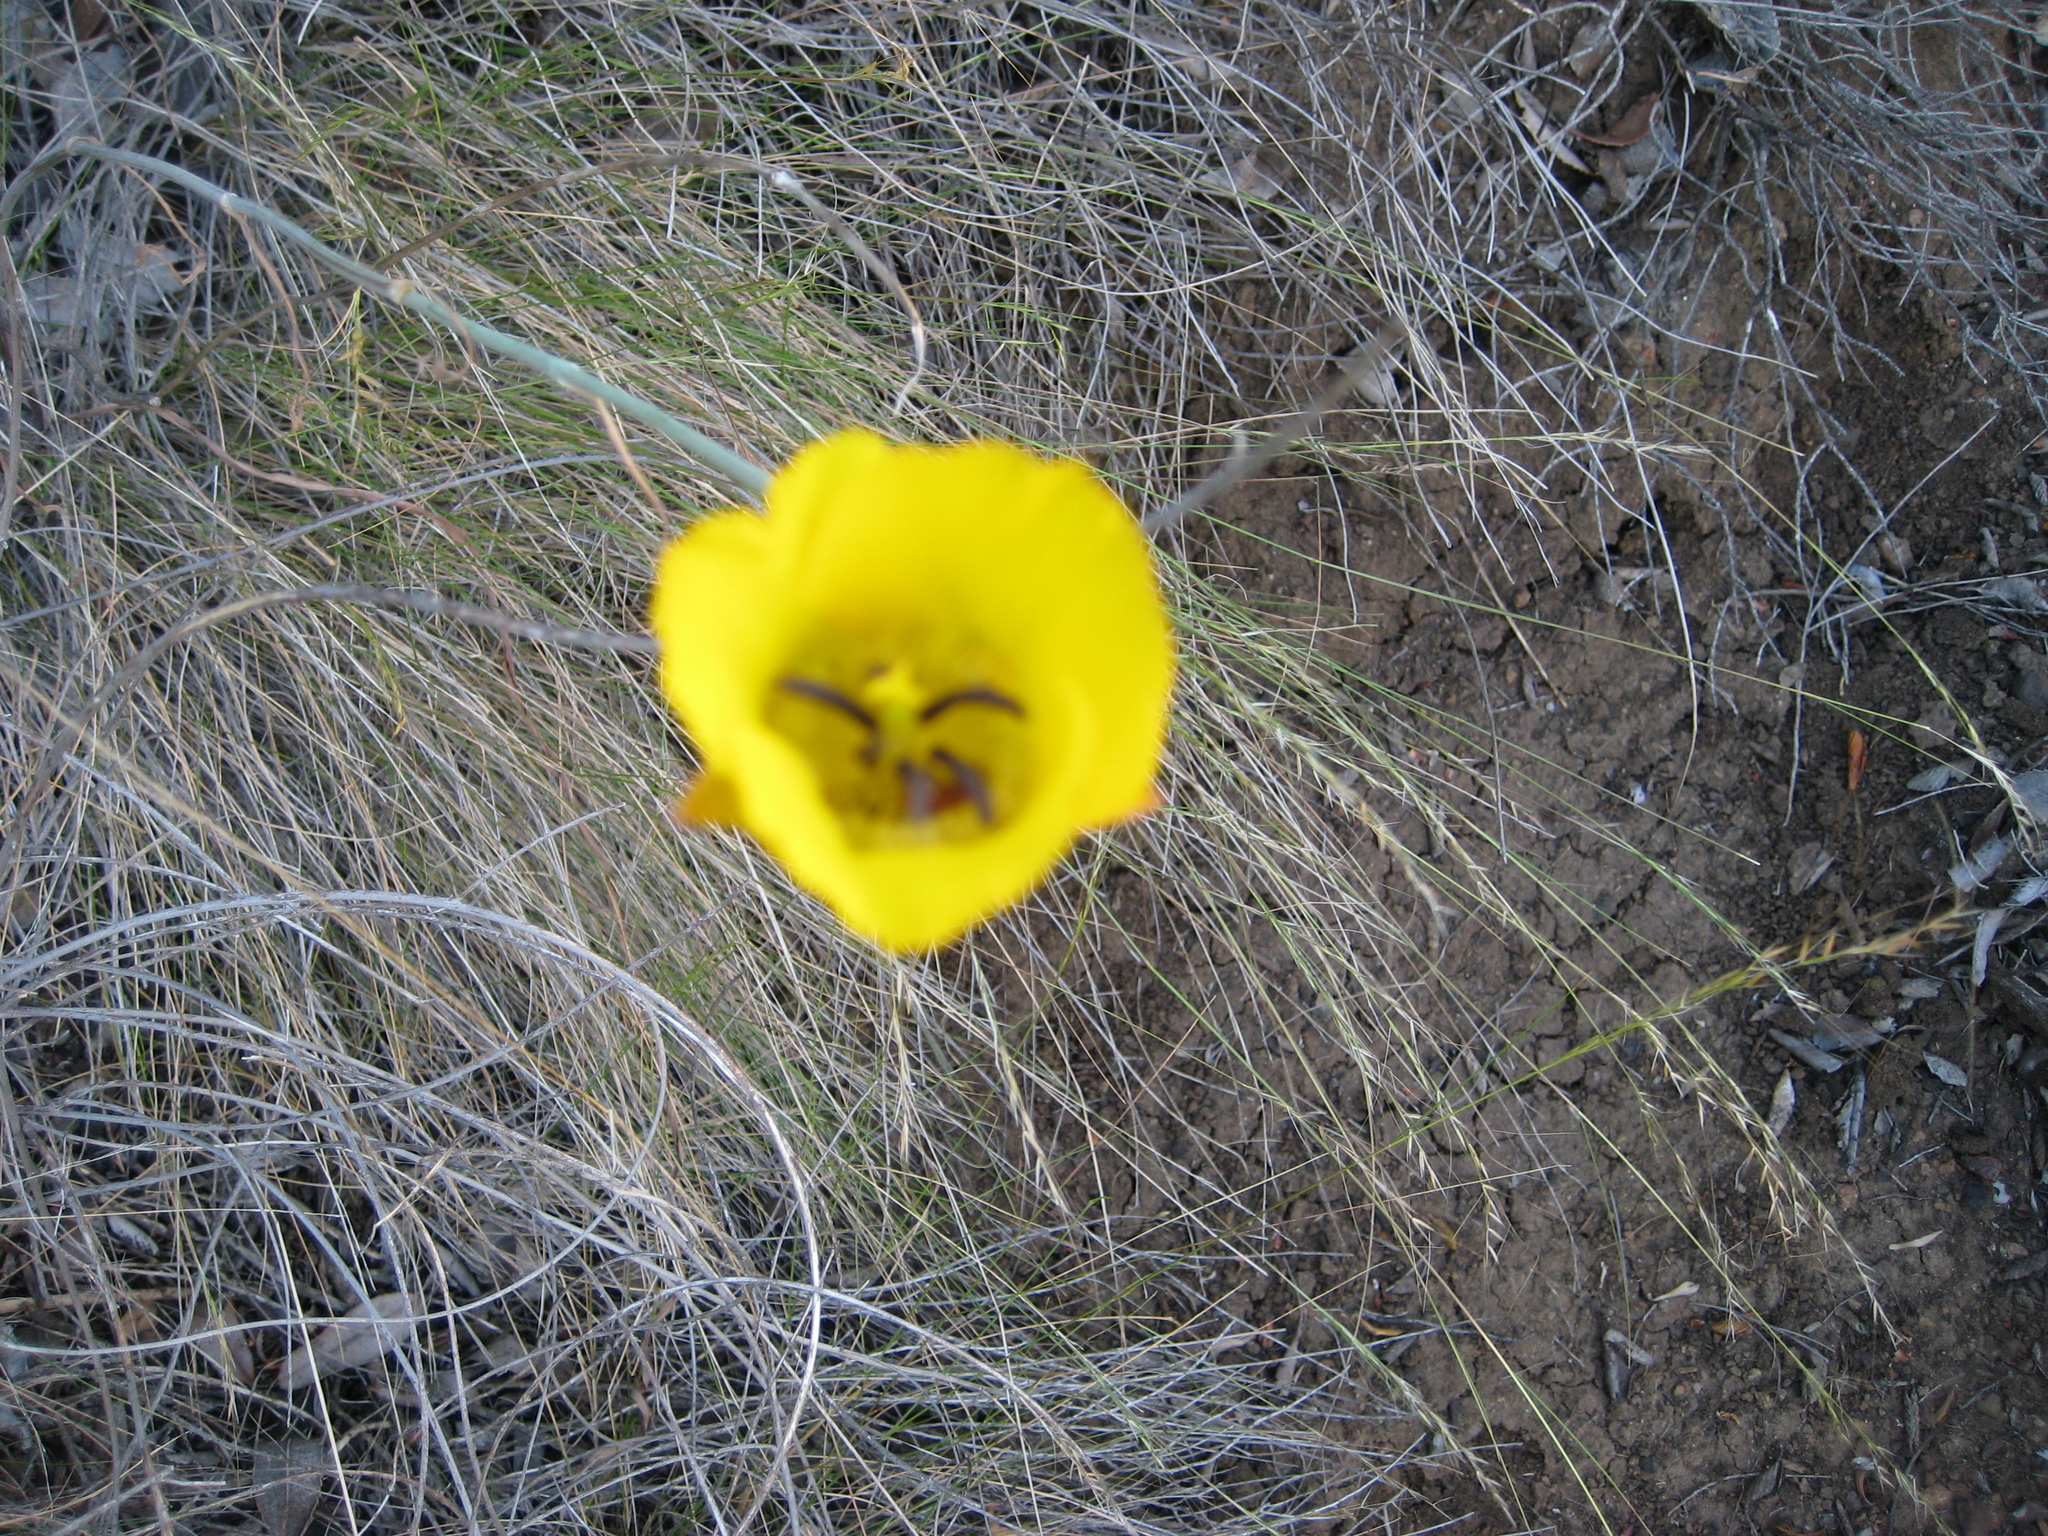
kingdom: Plantae
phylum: Tracheophyta
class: Liliopsida
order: Liliales
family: Liliaceae
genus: Calochortus
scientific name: Calochortus clavatus
